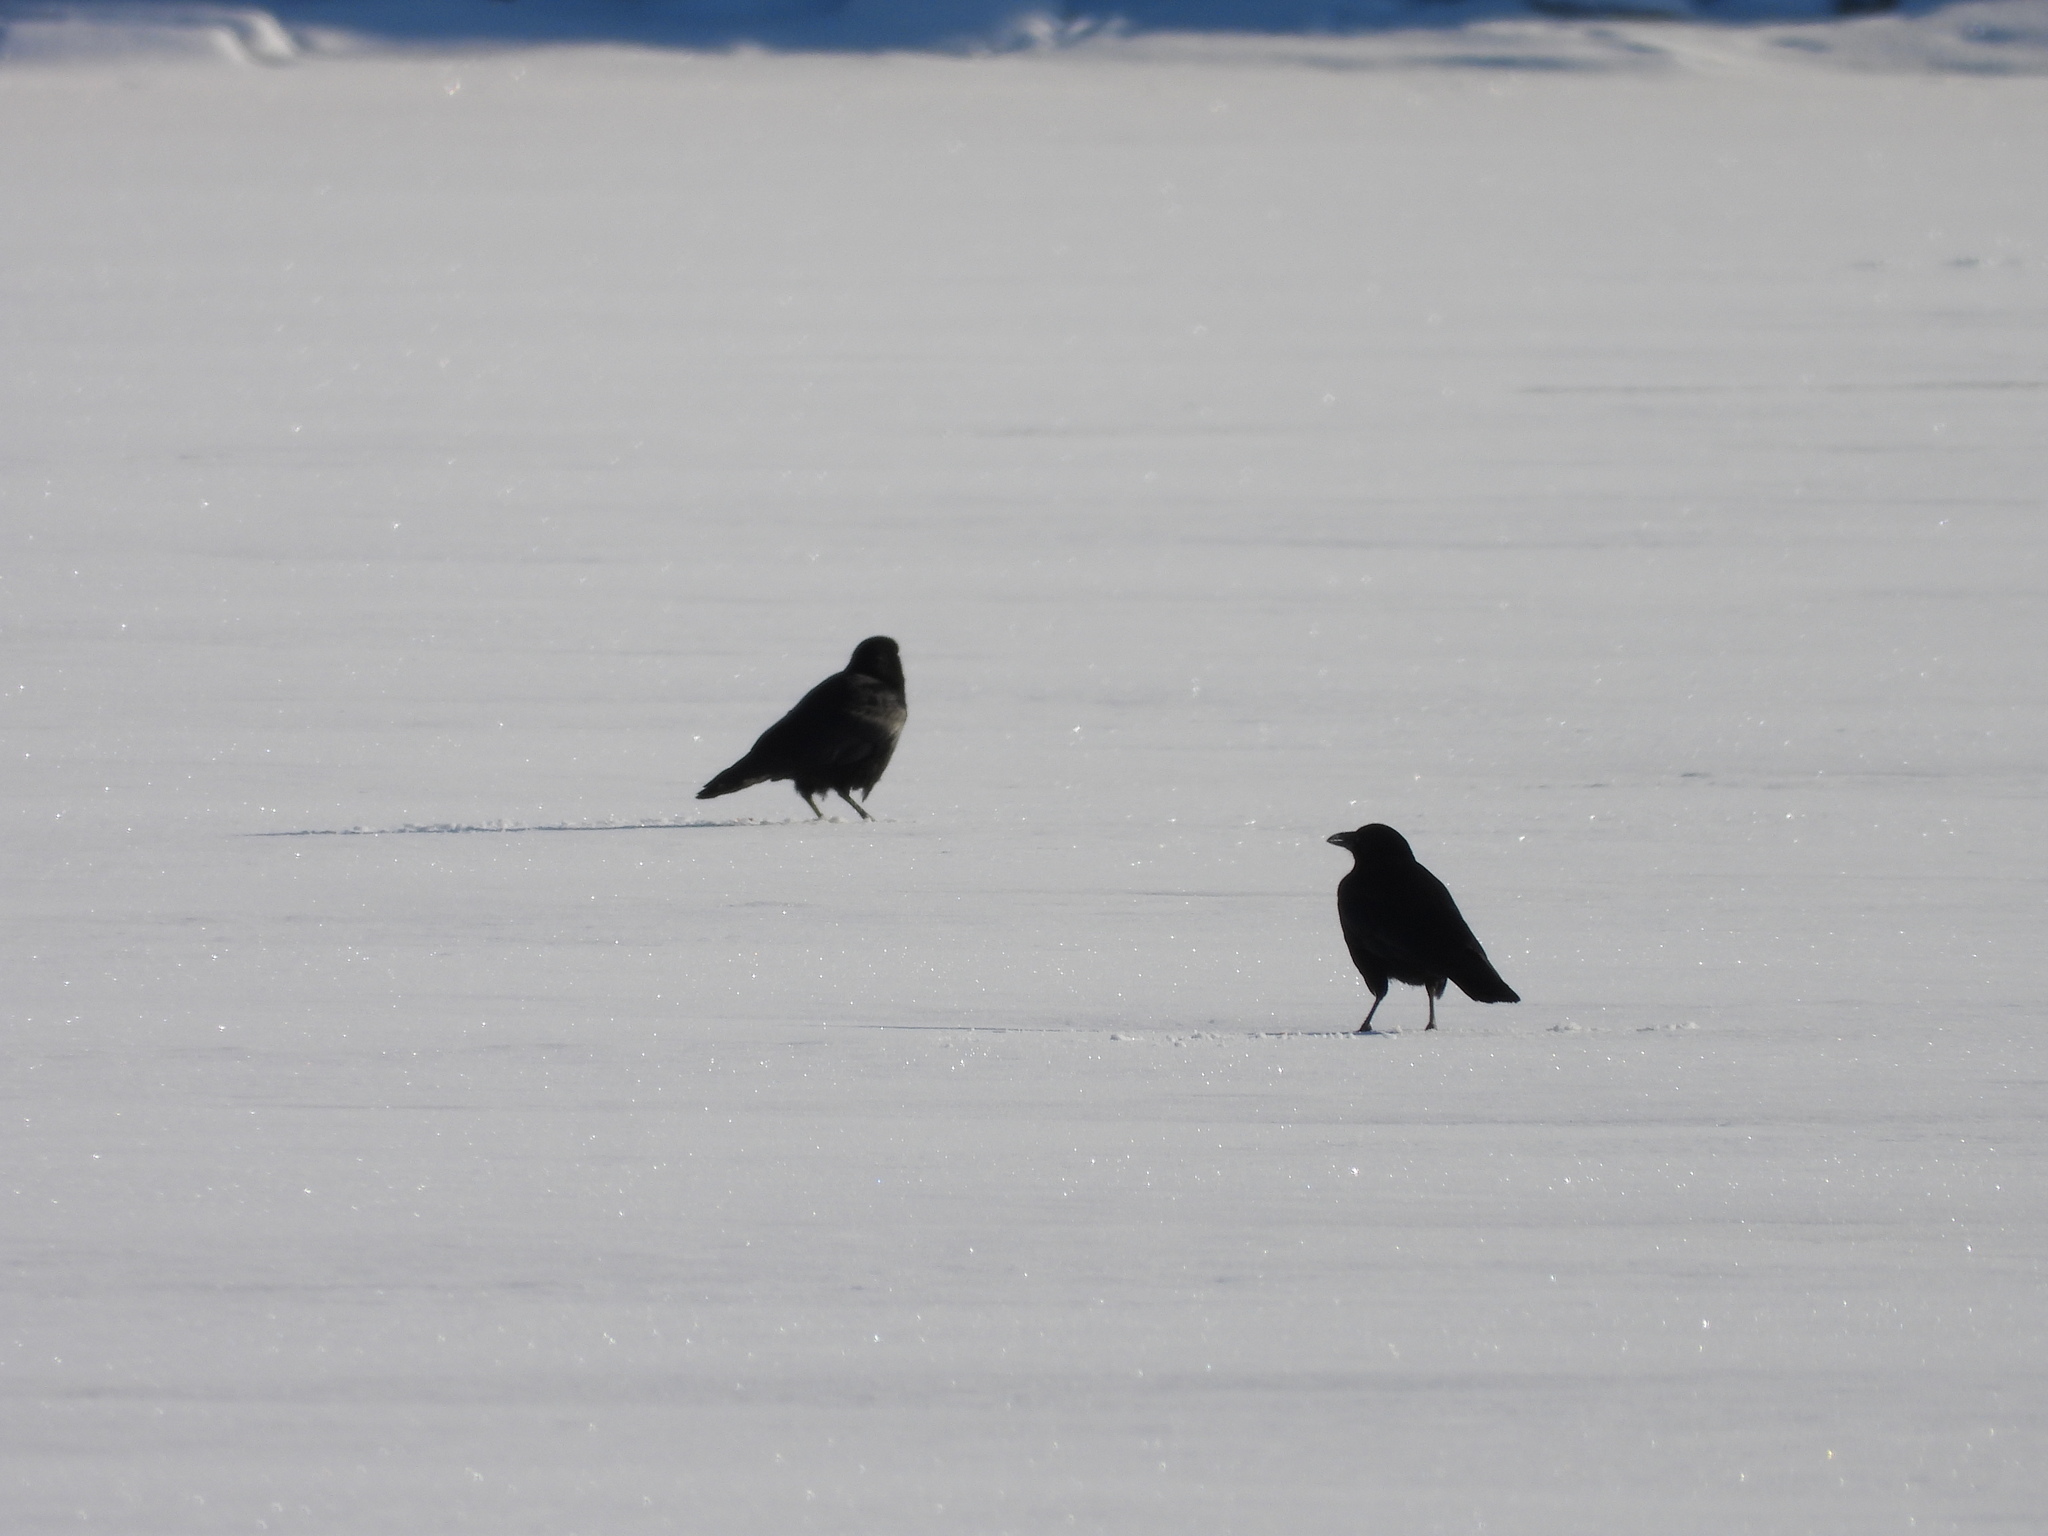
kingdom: Animalia
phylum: Chordata
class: Aves
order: Passeriformes
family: Corvidae
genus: Corvus
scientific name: Corvus brachyrhynchos
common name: American crow
